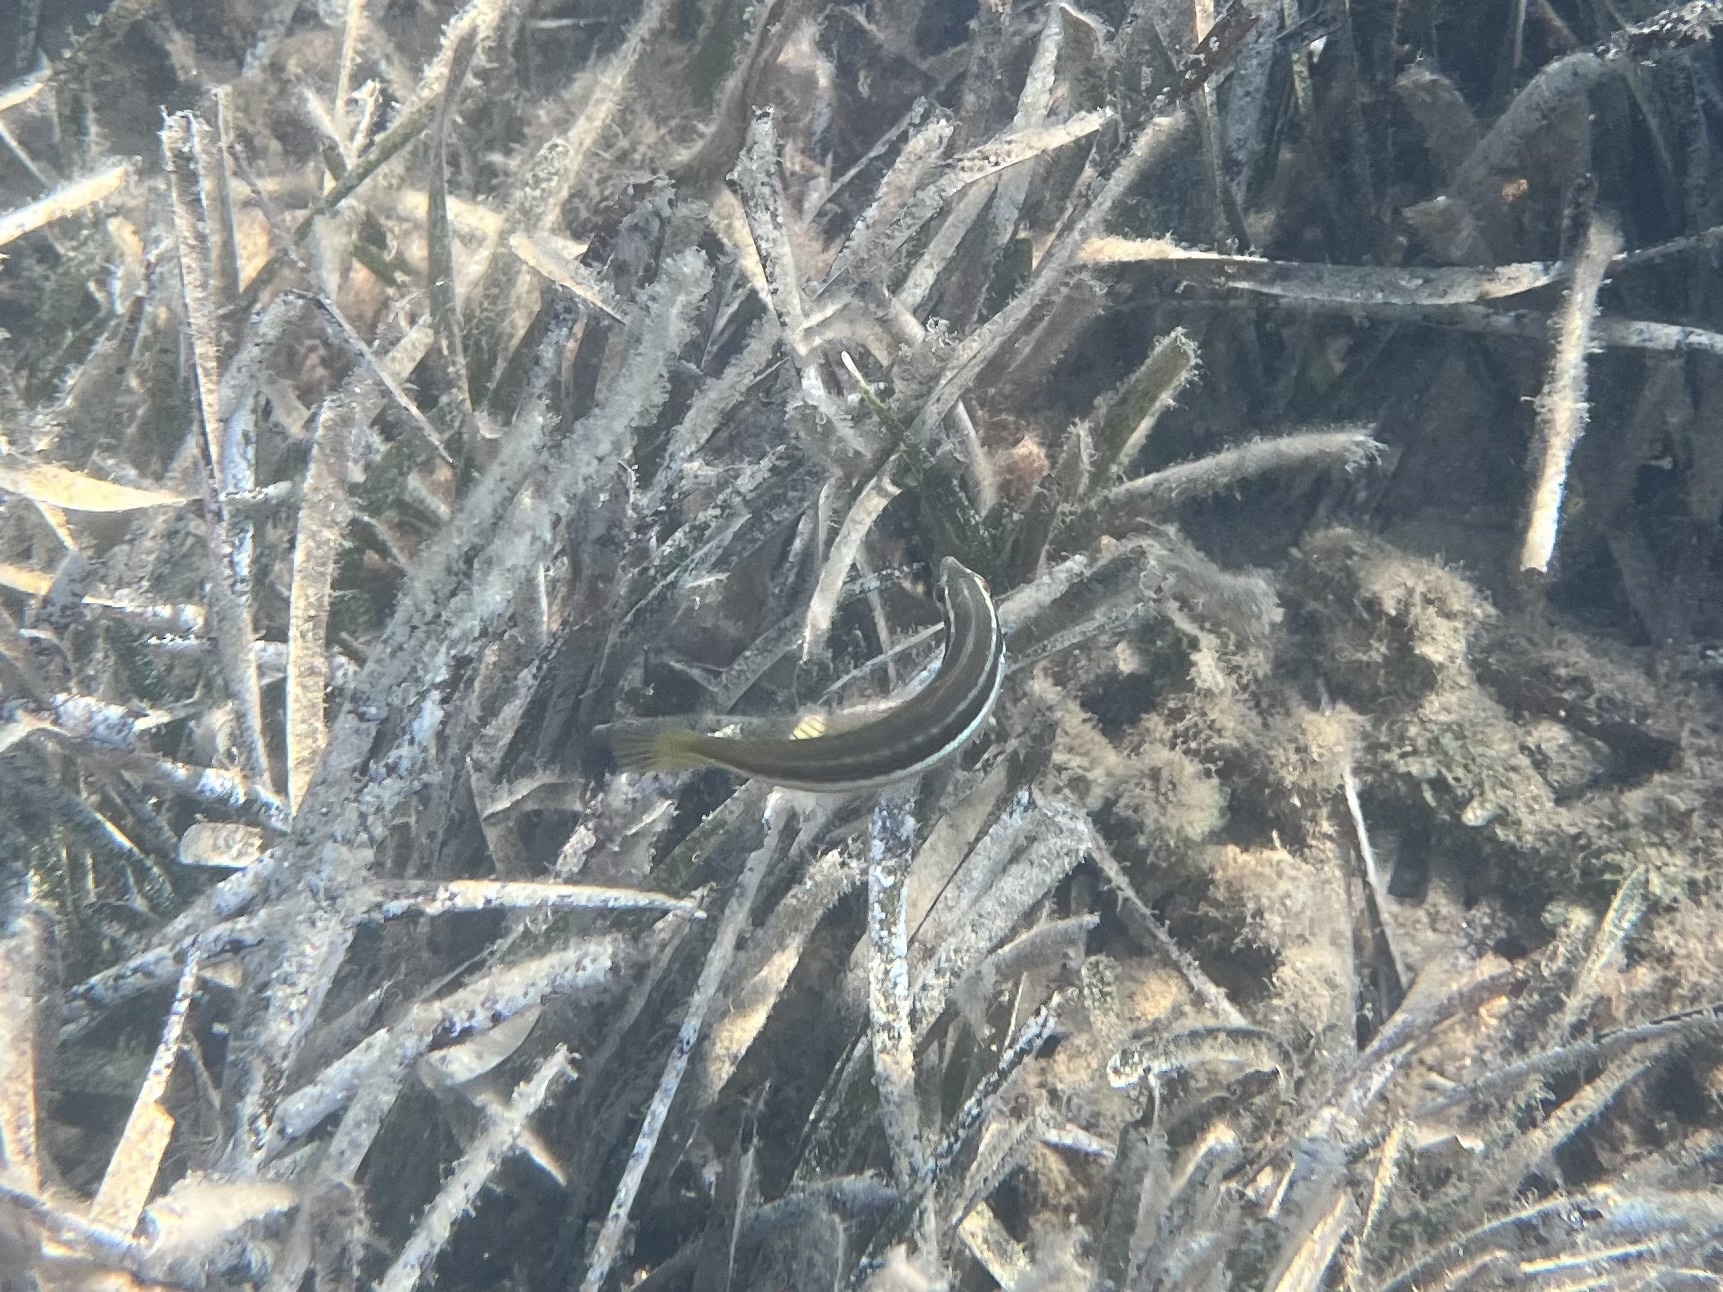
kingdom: Animalia
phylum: Chordata
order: Perciformes
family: Labridae
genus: Coris
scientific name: Coris julis
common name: Rainbow wrasse
